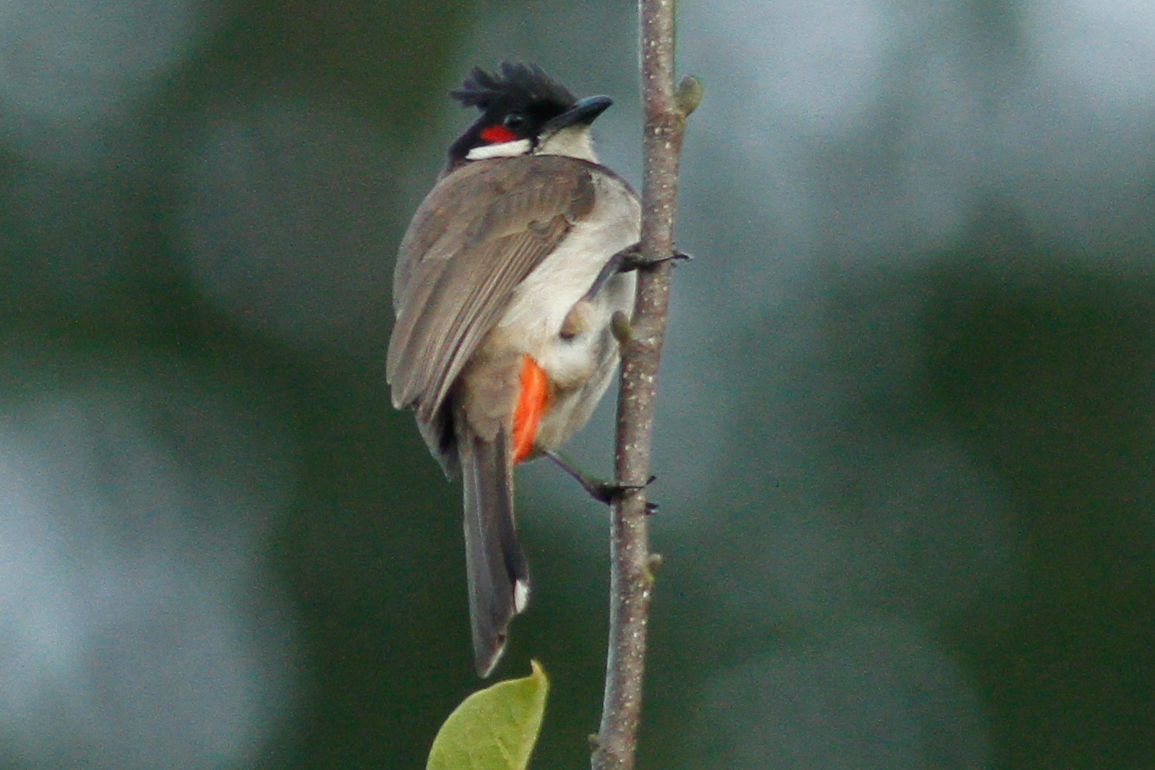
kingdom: Animalia
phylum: Chordata
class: Aves
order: Passeriformes
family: Pycnonotidae
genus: Pycnonotus
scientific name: Pycnonotus jocosus
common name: Red-whiskered bulbul
